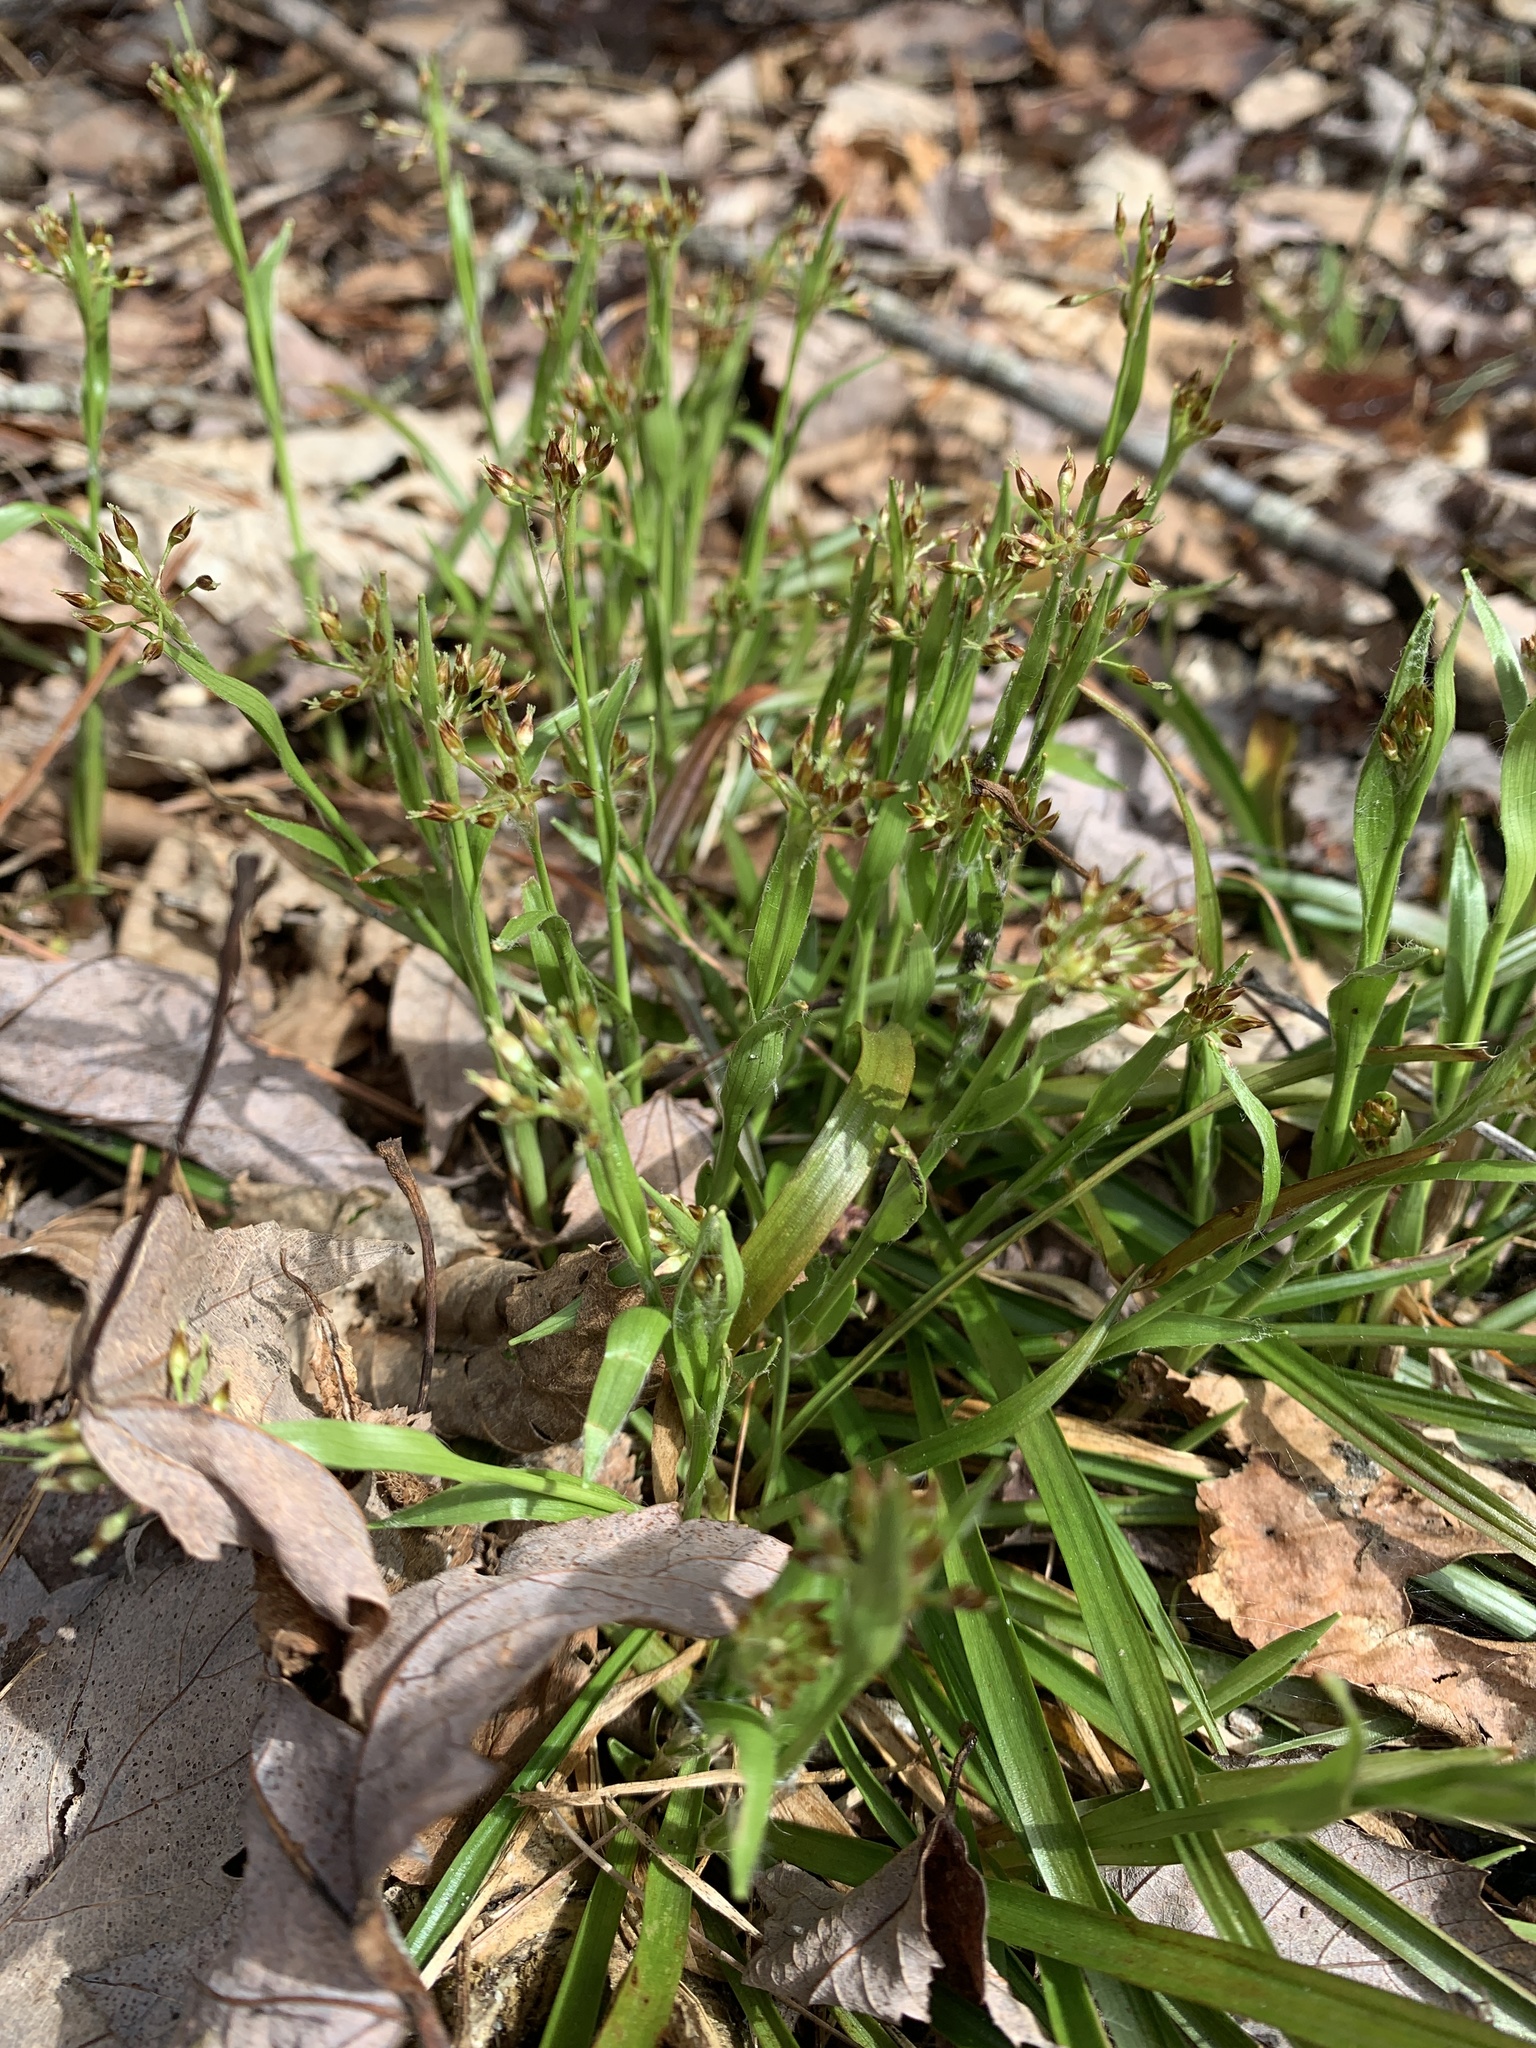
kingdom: Plantae
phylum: Tracheophyta
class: Liliopsida
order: Poales
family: Juncaceae
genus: Luzula
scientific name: Luzula acuminata
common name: Hairy woodrush
